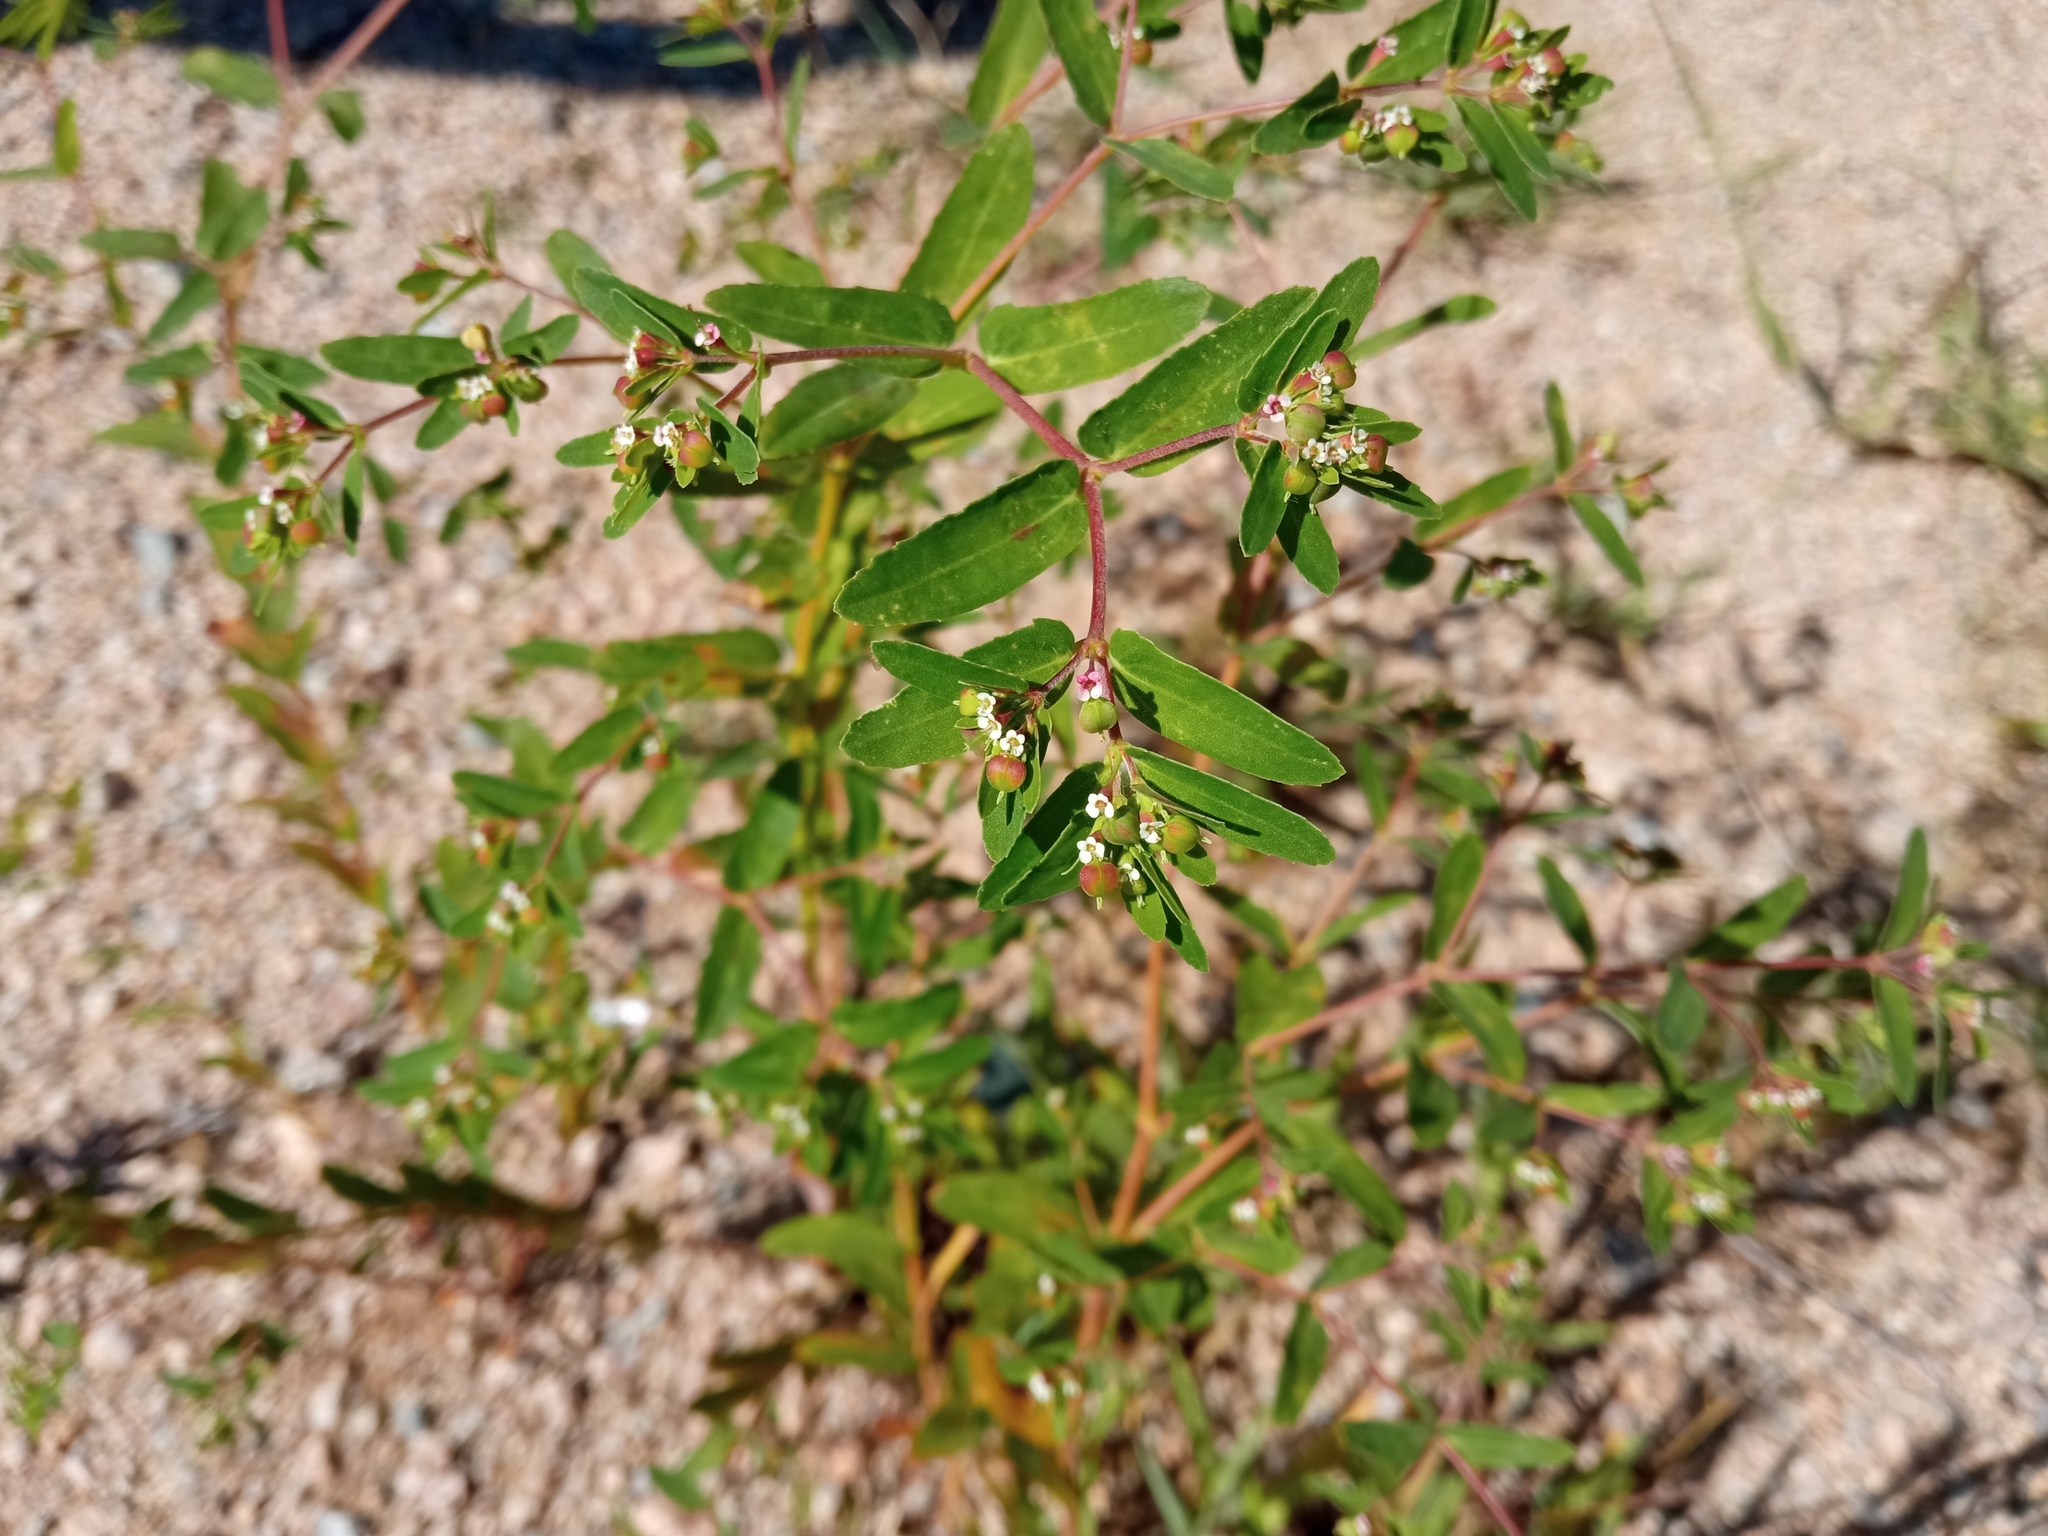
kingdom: Plantae
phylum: Tracheophyta
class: Magnoliopsida
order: Malpighiales
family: Euphorbiaceae
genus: Euphorbia
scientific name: Euphorbia nutans
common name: Eyebane
